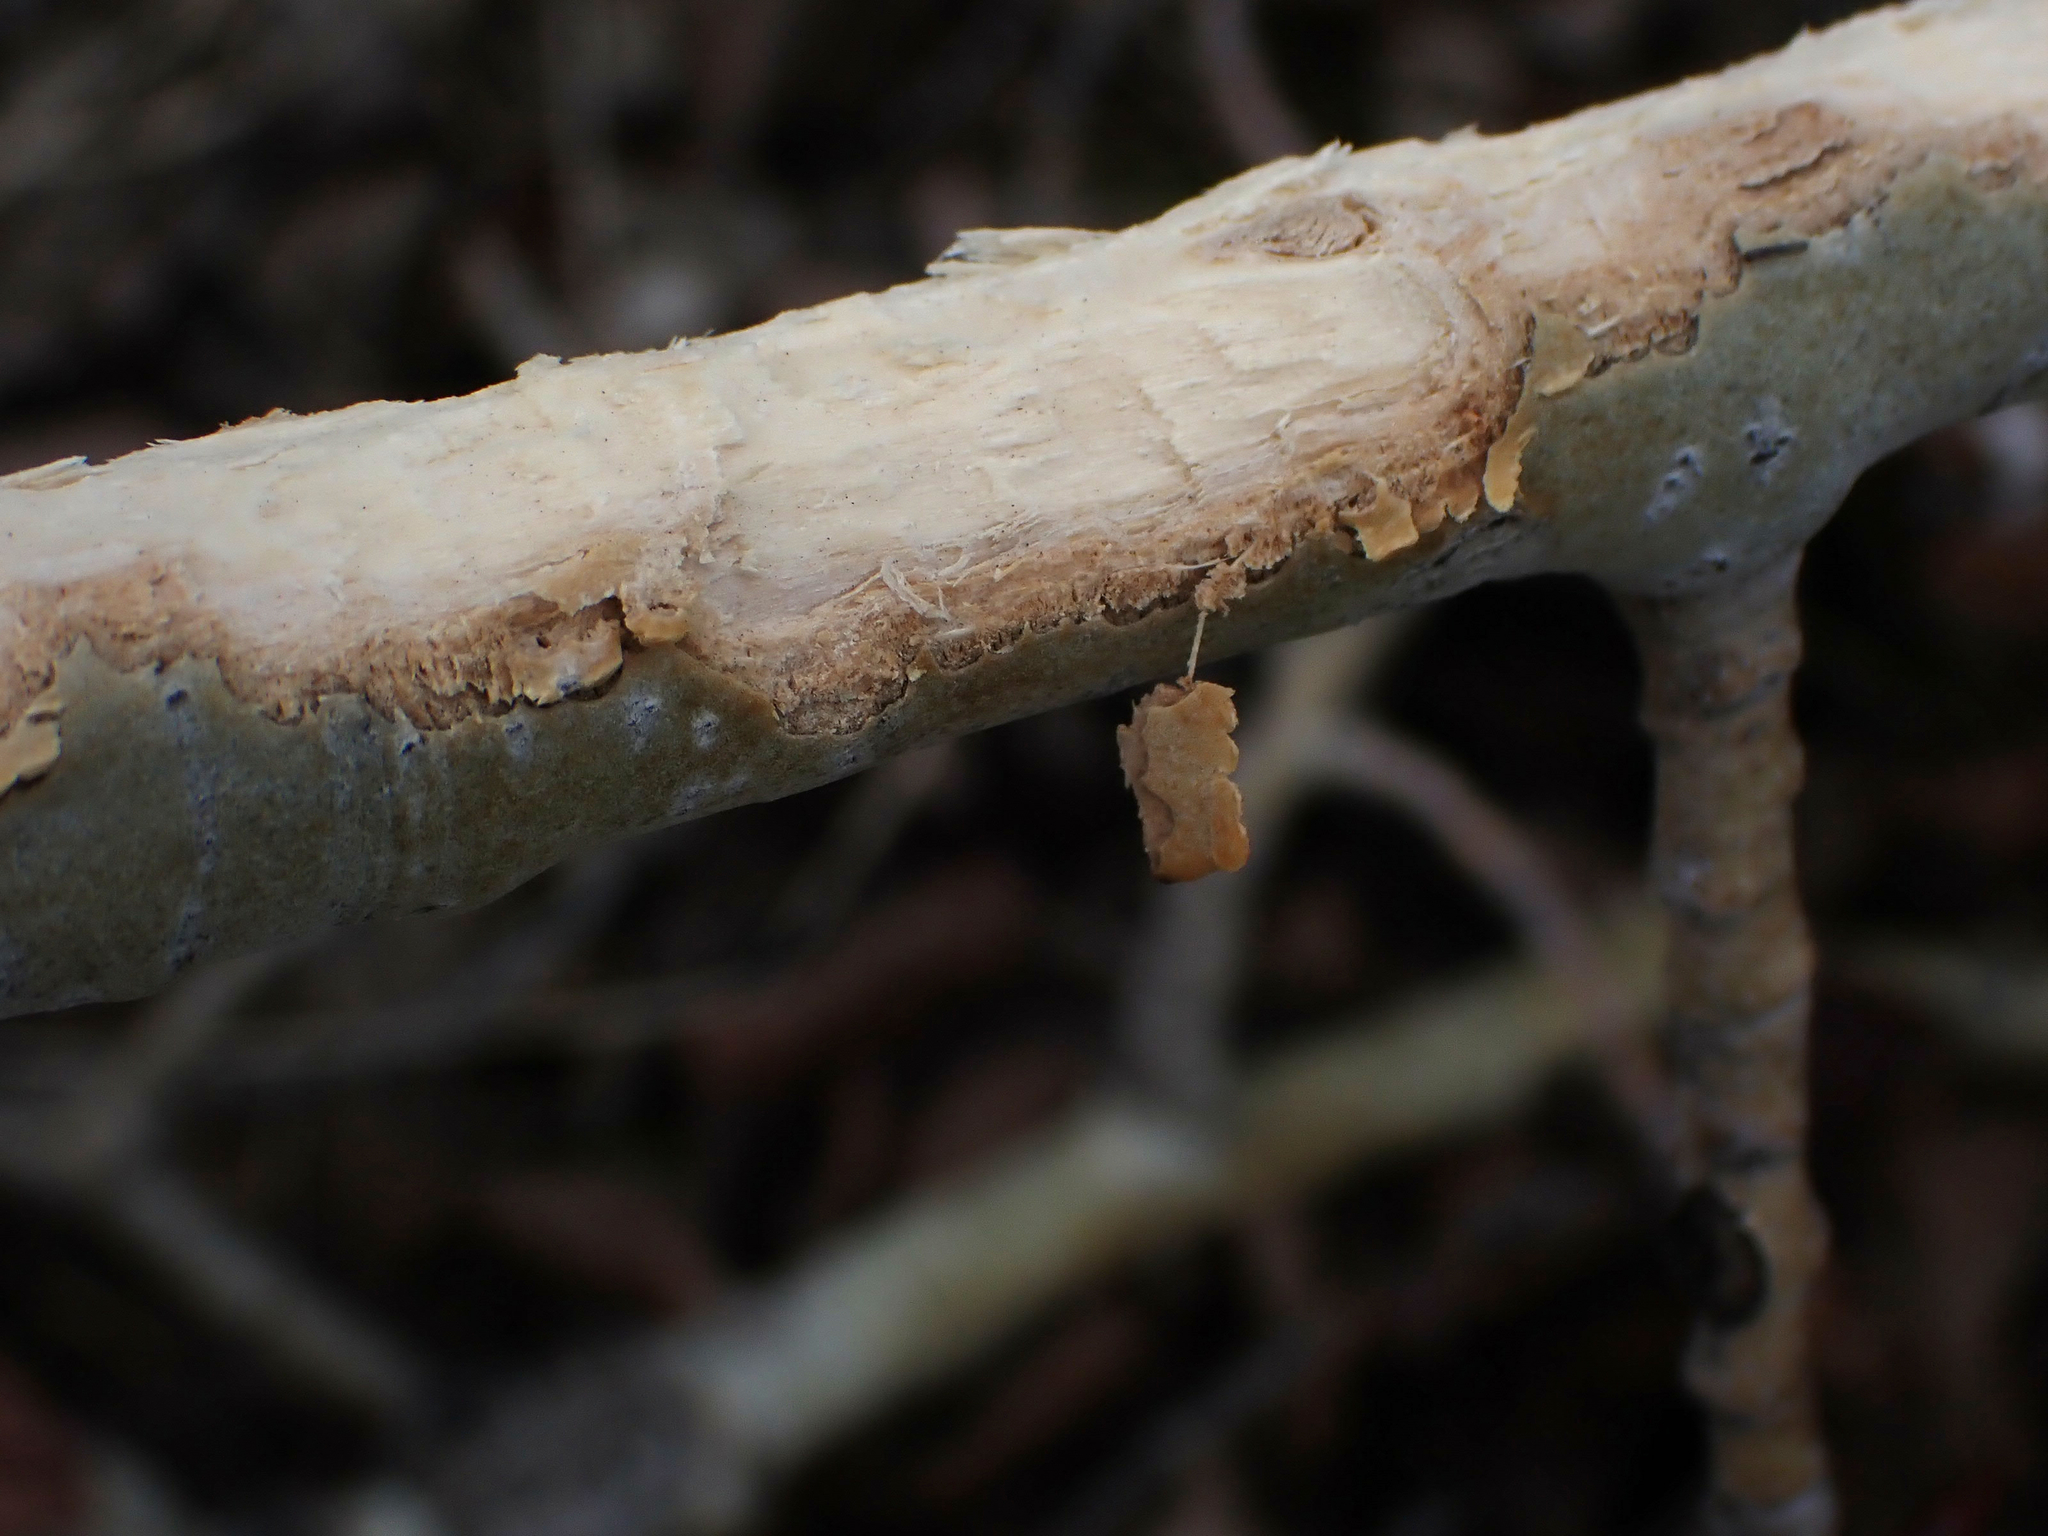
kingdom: Animalia
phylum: Chordata
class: Mammalia
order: Rodentia
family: Erethizontidae
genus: Erethizon
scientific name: Erethizon dorsatus
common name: North american porcupine
